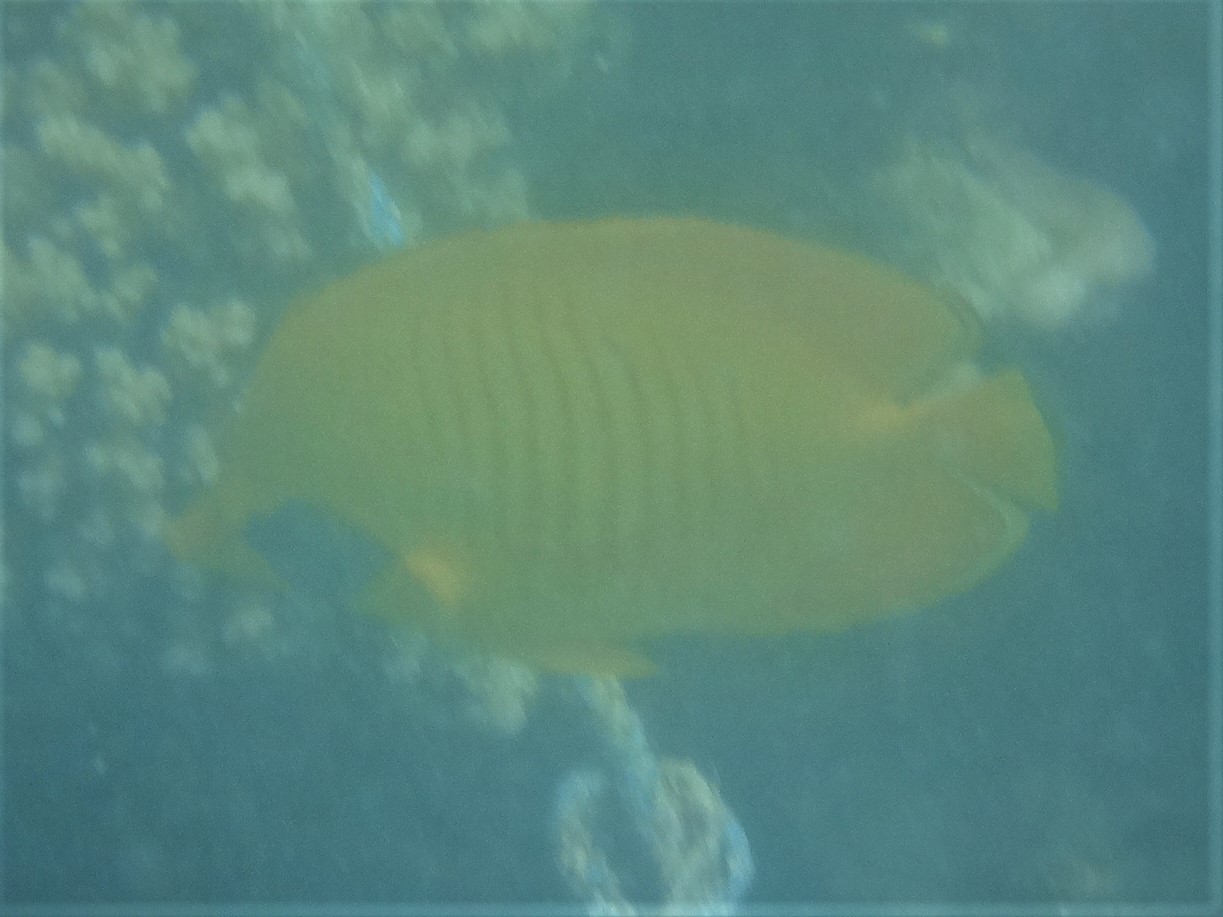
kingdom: Animalia
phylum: Chordata
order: Perciformes
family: Chaetodontidae
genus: Chaetodon
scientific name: Chaetodon semilarvatus
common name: Golden butterflyfish
